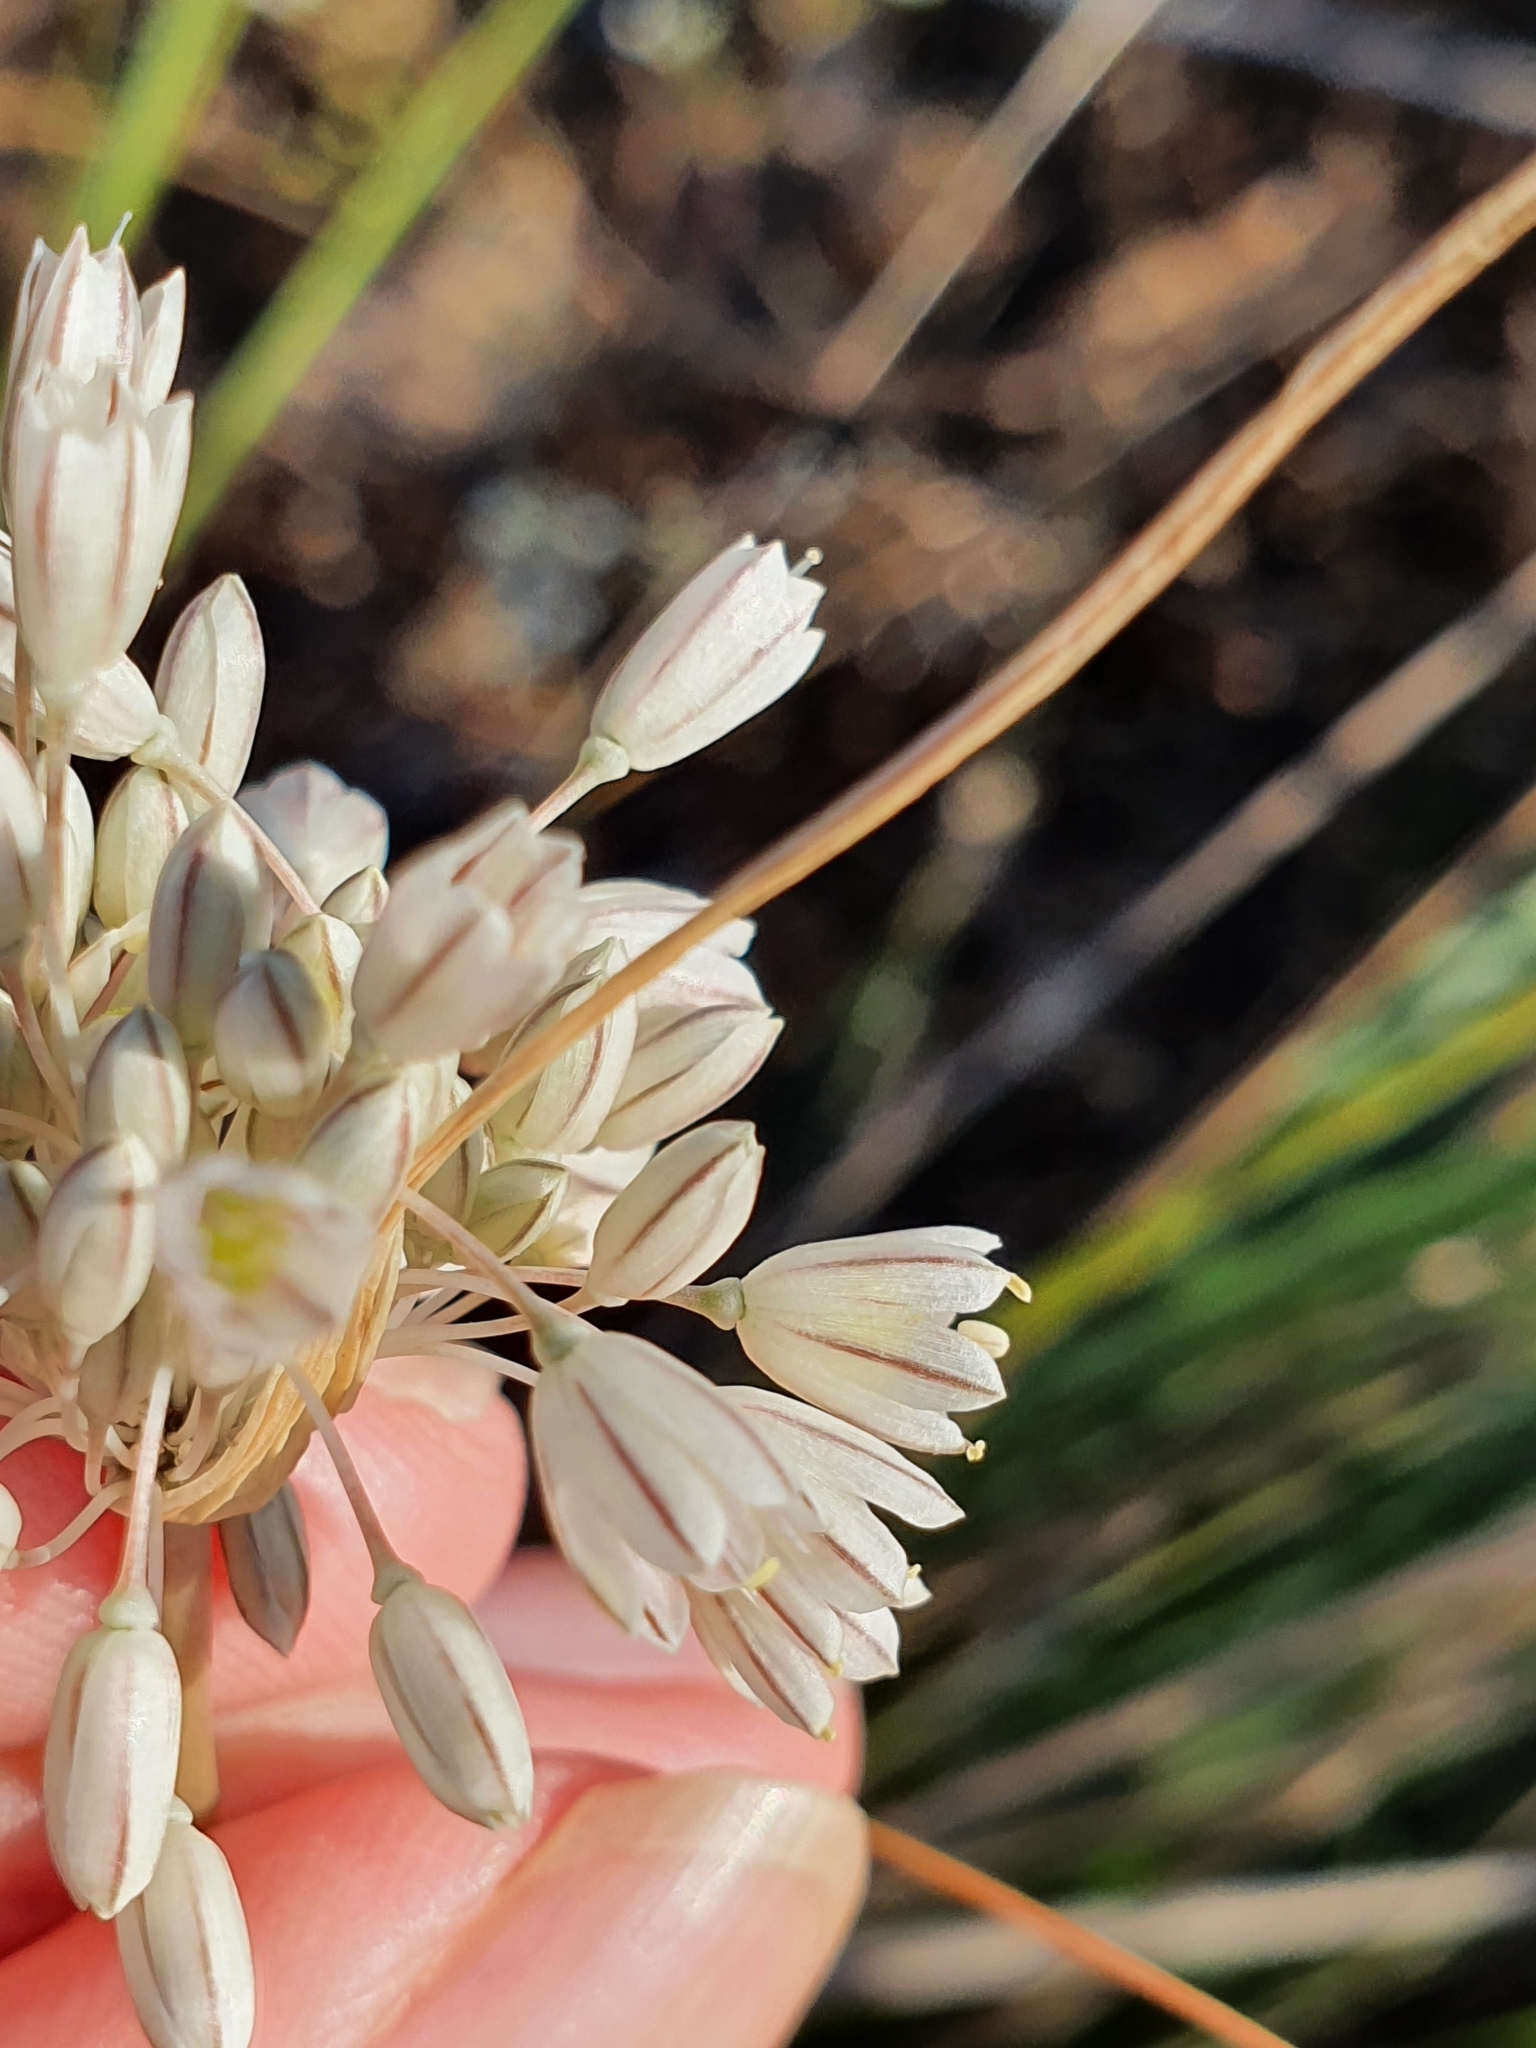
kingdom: Plantae
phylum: Tracheophyta
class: Liliopsida
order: Asparagales
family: Amaryllidaceae
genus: Allium
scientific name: Allium antiatlanticum
